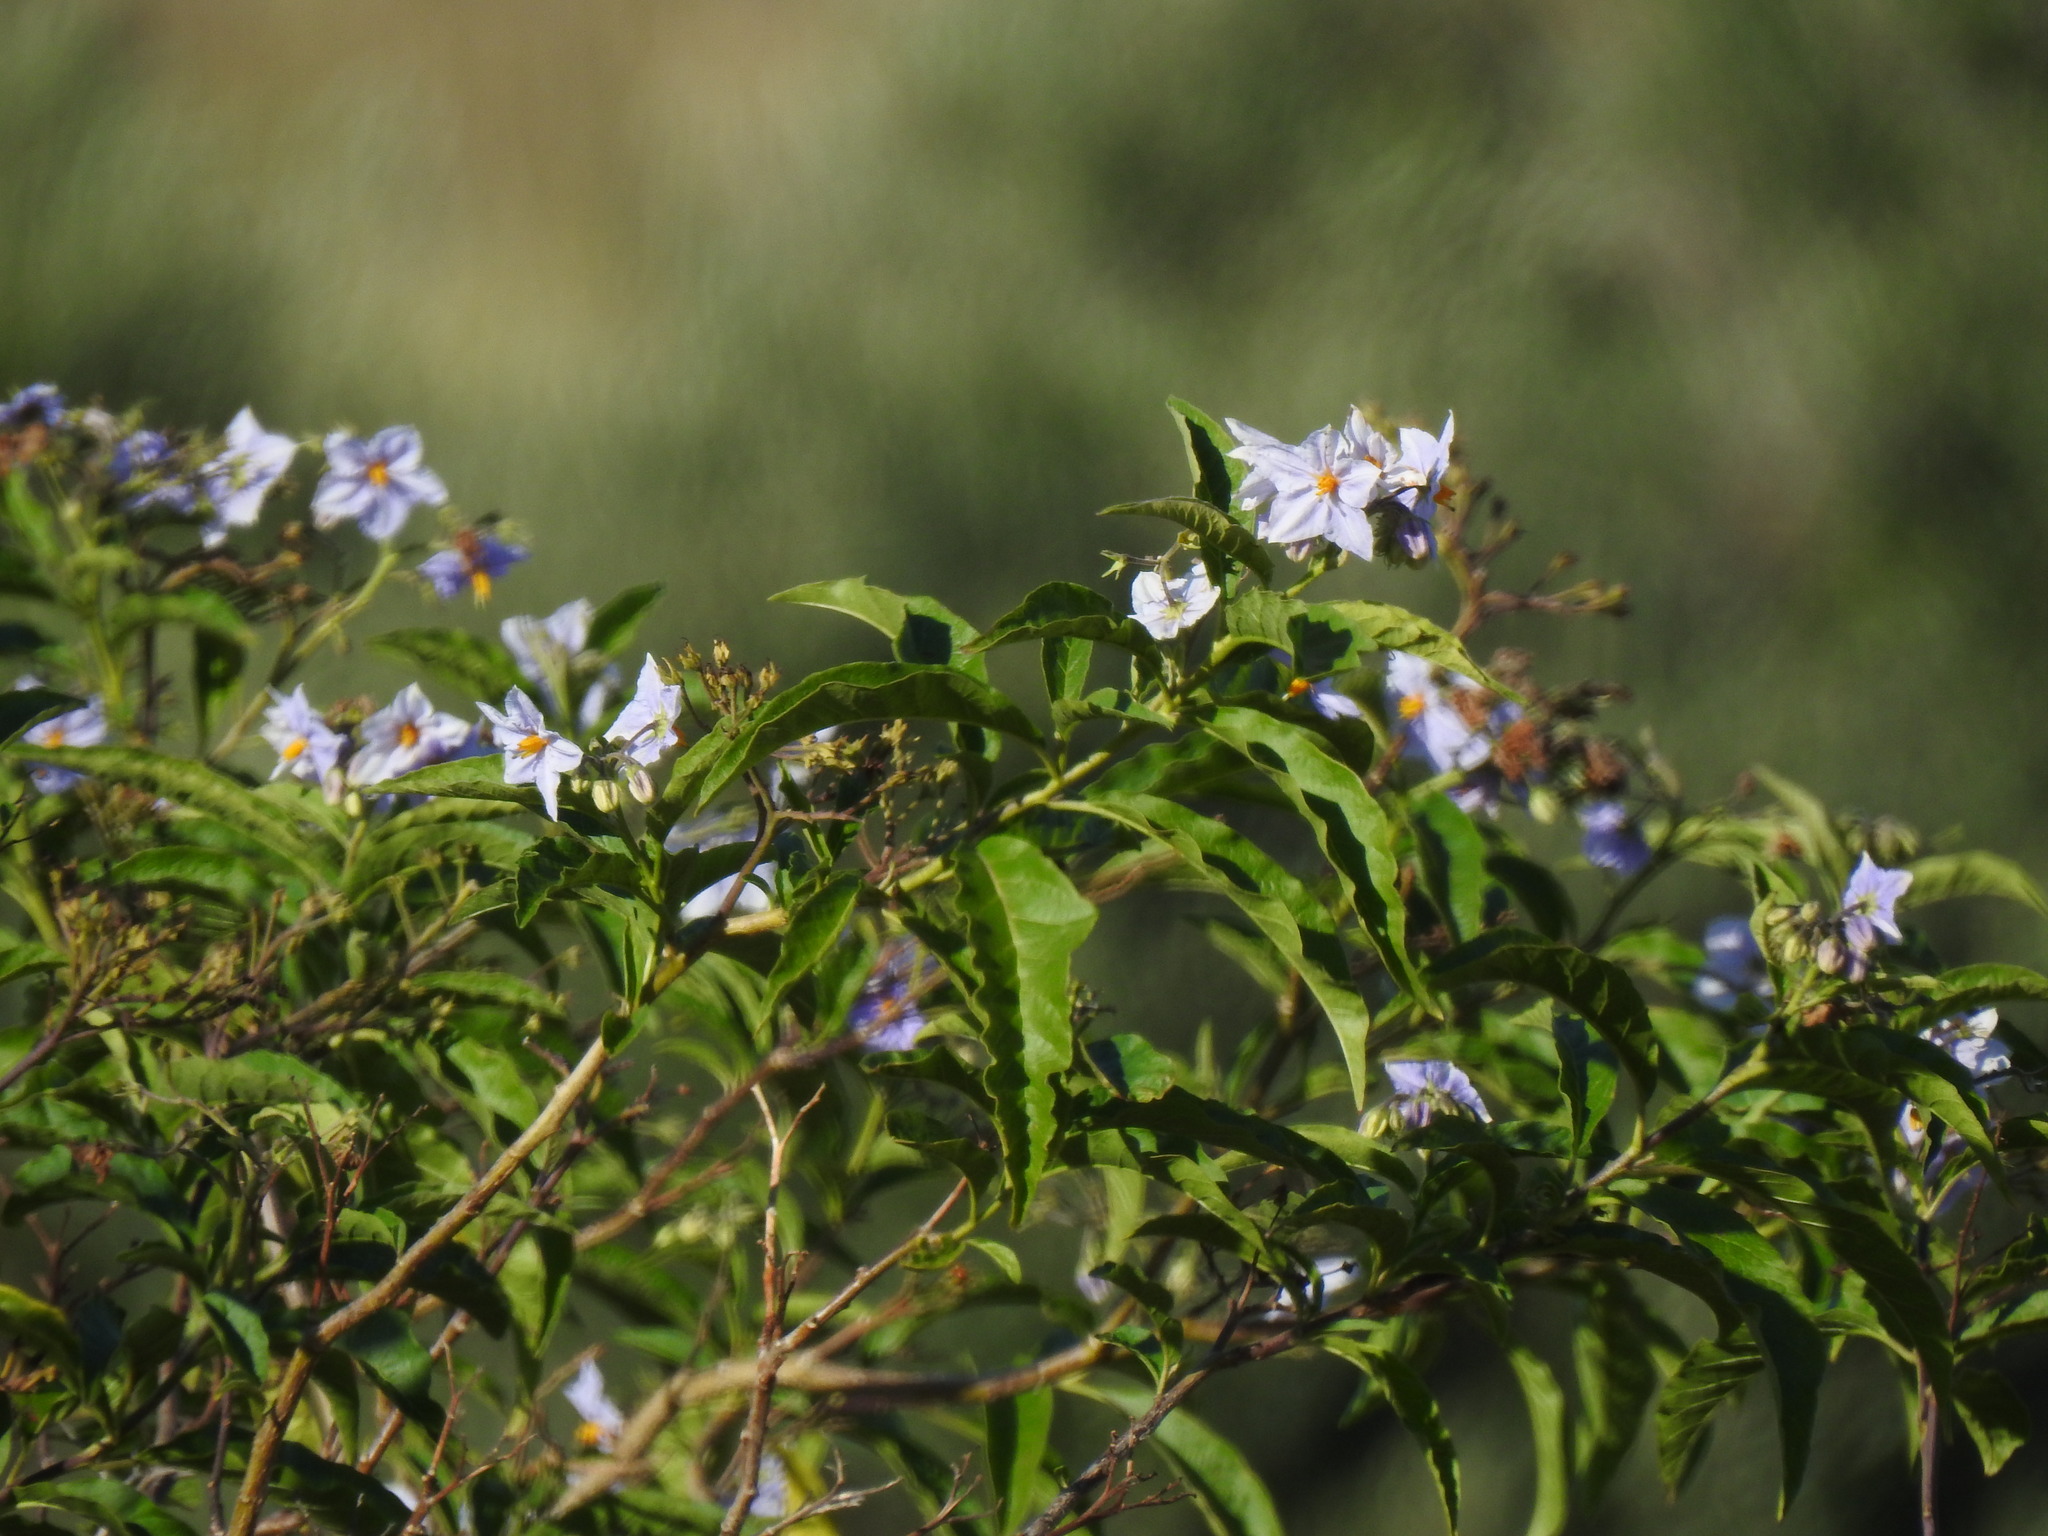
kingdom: Plantae
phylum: Tracheophyta
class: Magnoliopsida
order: Solanales
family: Solanaceae
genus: Solanum
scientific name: Solanum bonariense
